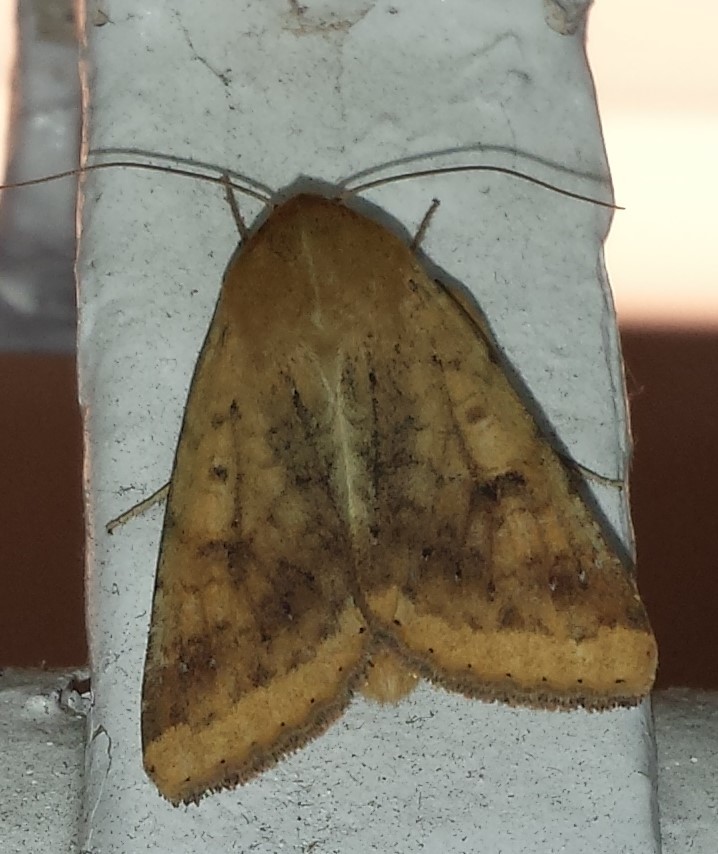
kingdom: Animalia
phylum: Arthropoda
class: Insecta
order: Lepidoptera
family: Noctuidae
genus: Helicoverpa
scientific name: Helicoverpa zea
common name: Bollworm
